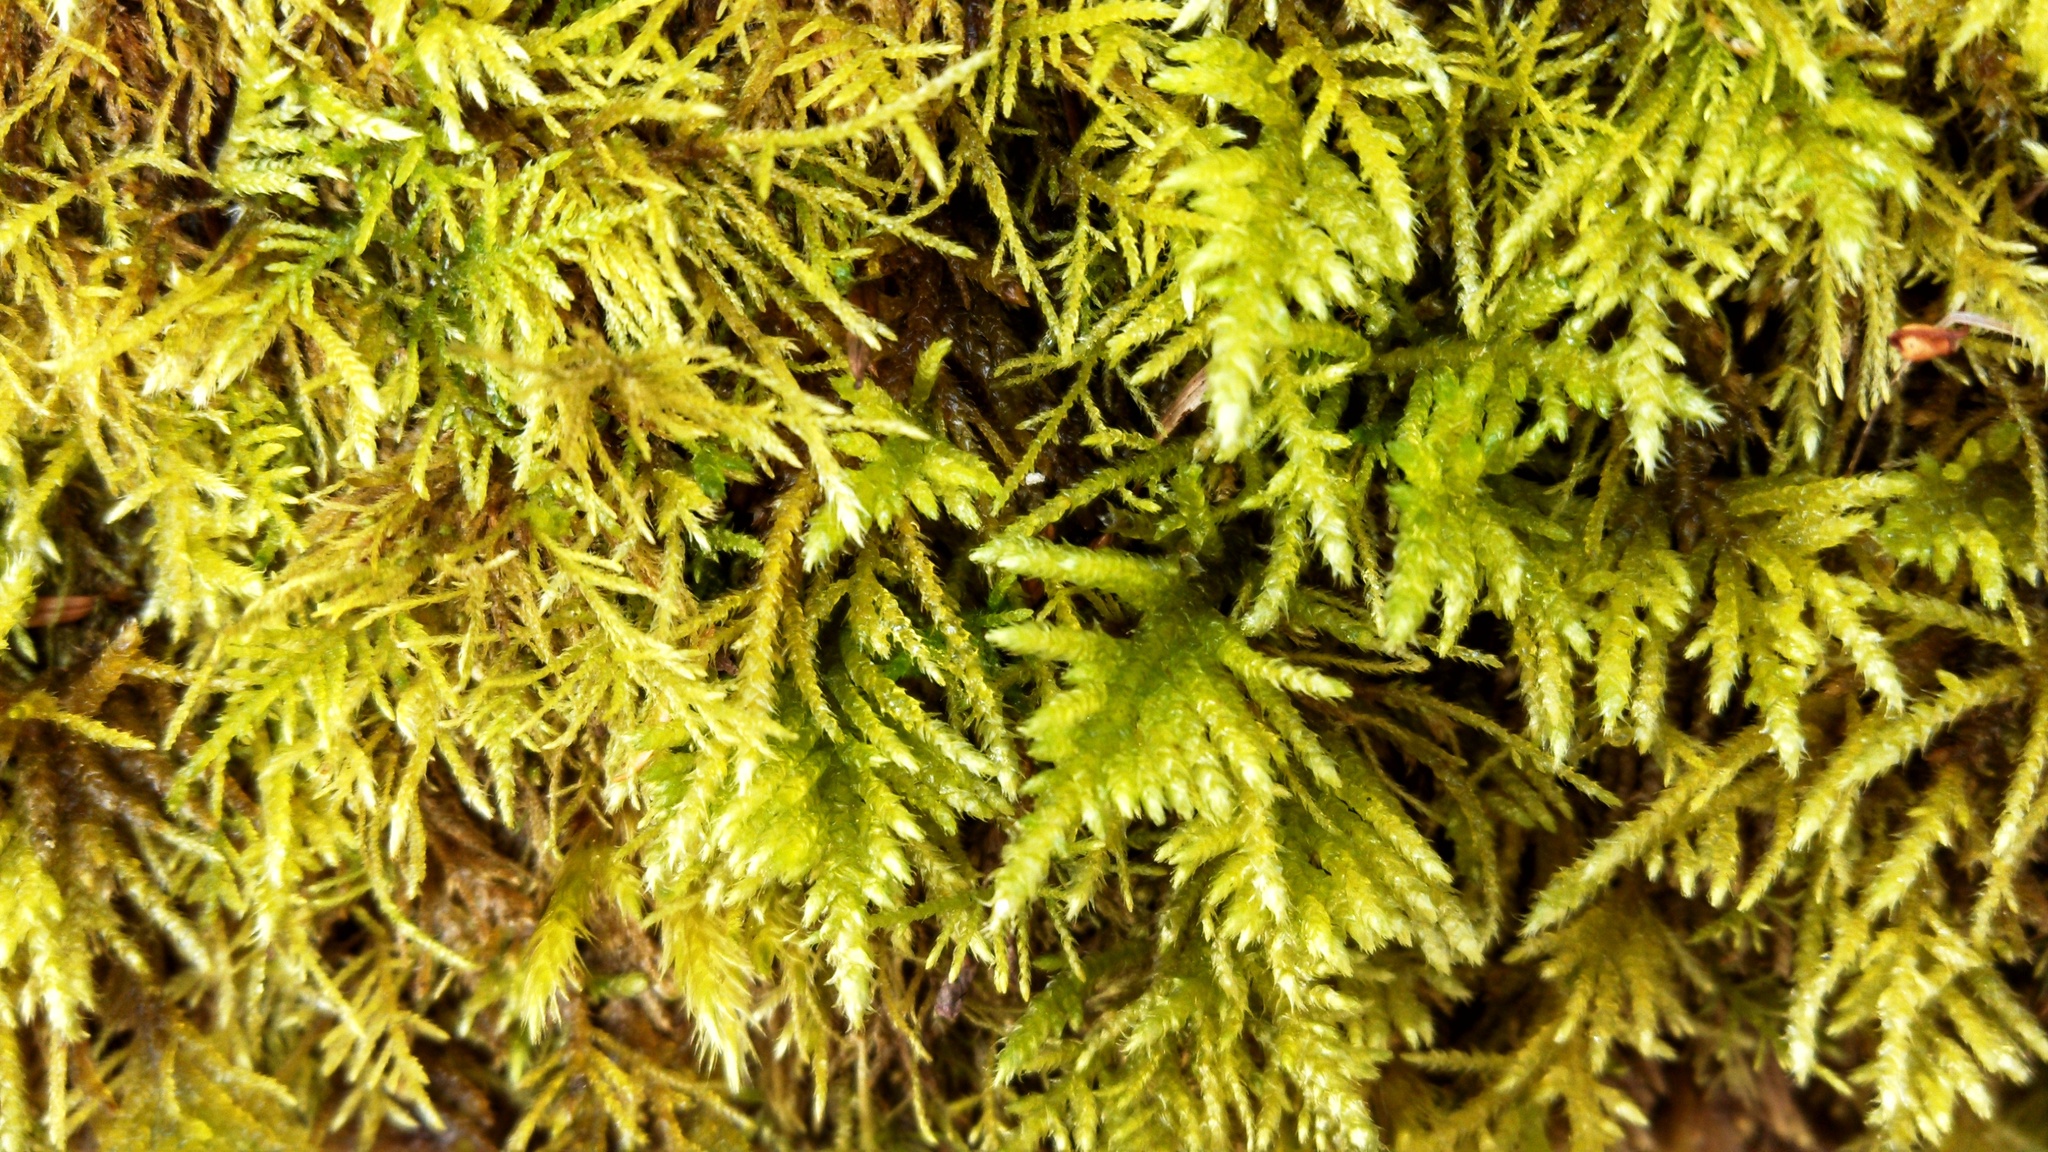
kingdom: Plantae
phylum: Bryophyta
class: Bryopsida
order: Hypnales
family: Brachytheciaceae
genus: Kindbergia
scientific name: Kindbergia oregana
